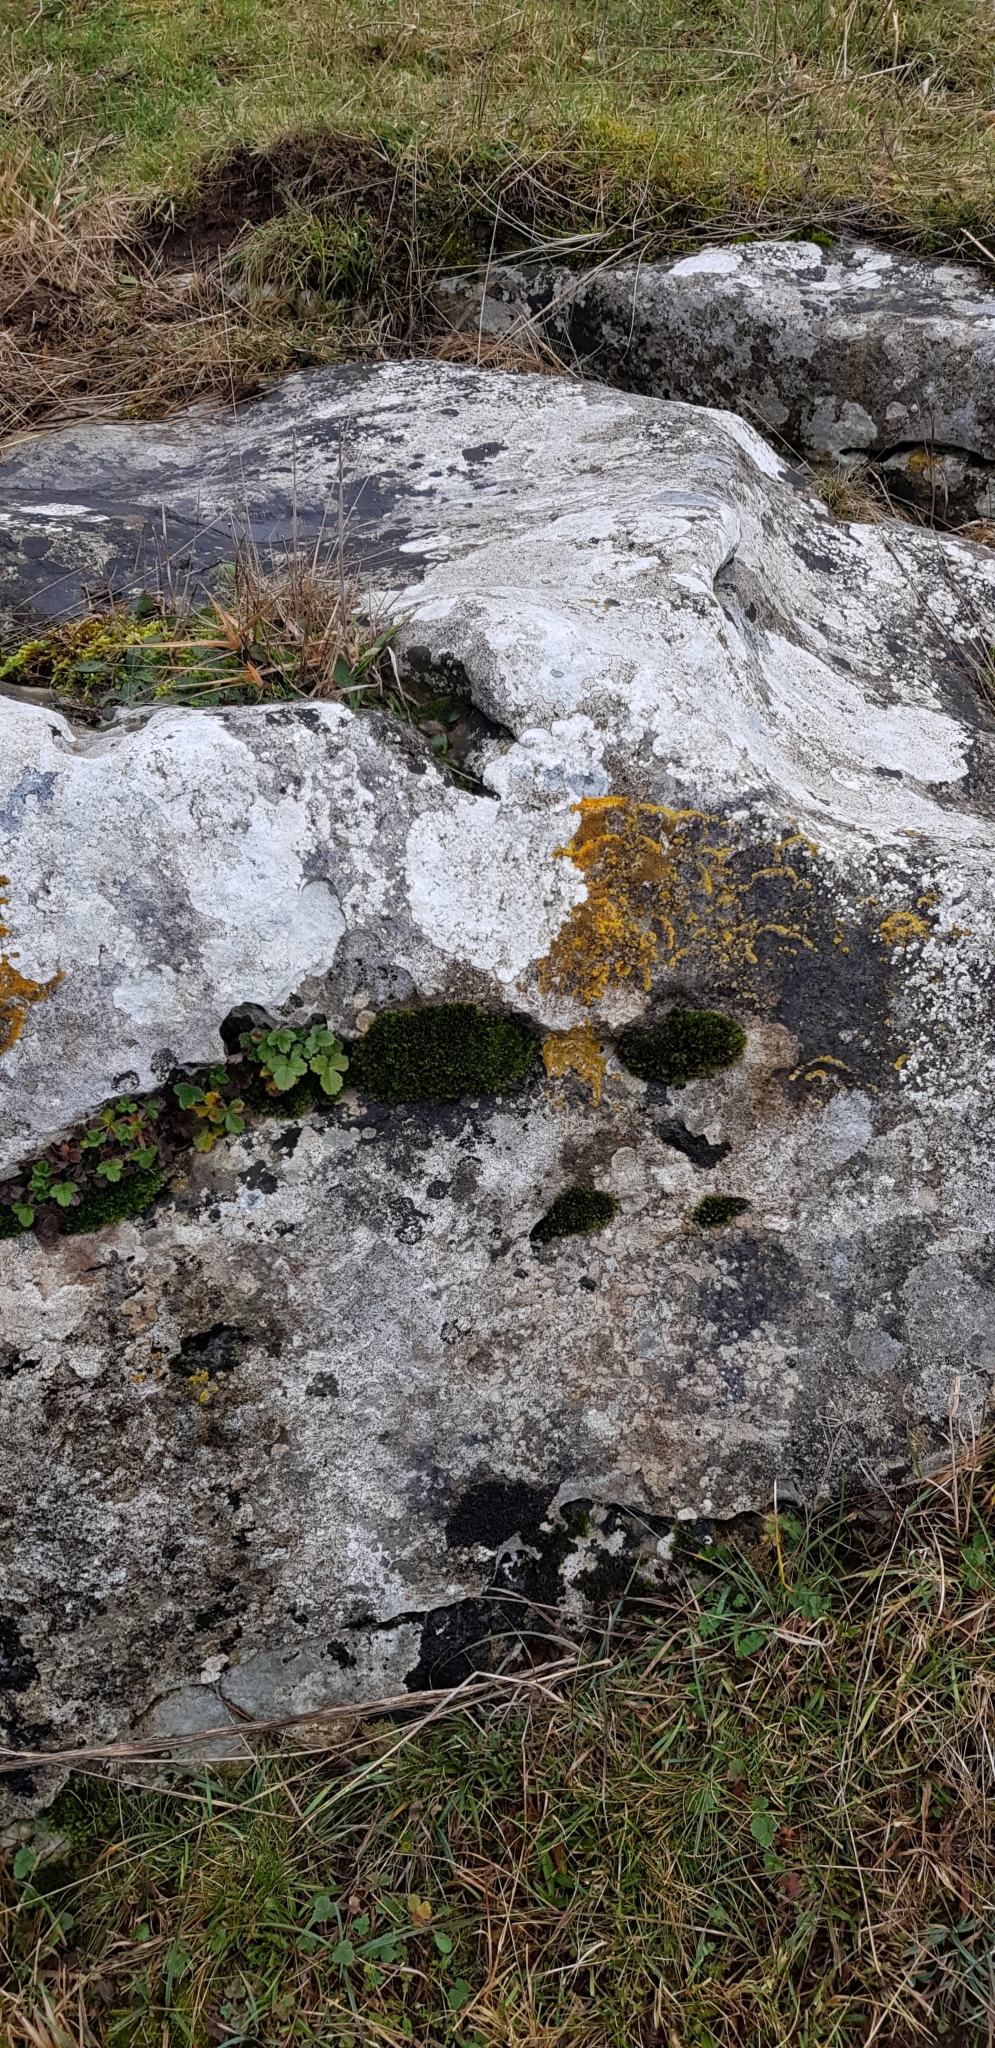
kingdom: Plantae
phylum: Bryophyta
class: Bryopsida
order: Dicranales
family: Fissidentaceae
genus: Fissidens
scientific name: Fissidens dubius
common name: Rock pocket moss
